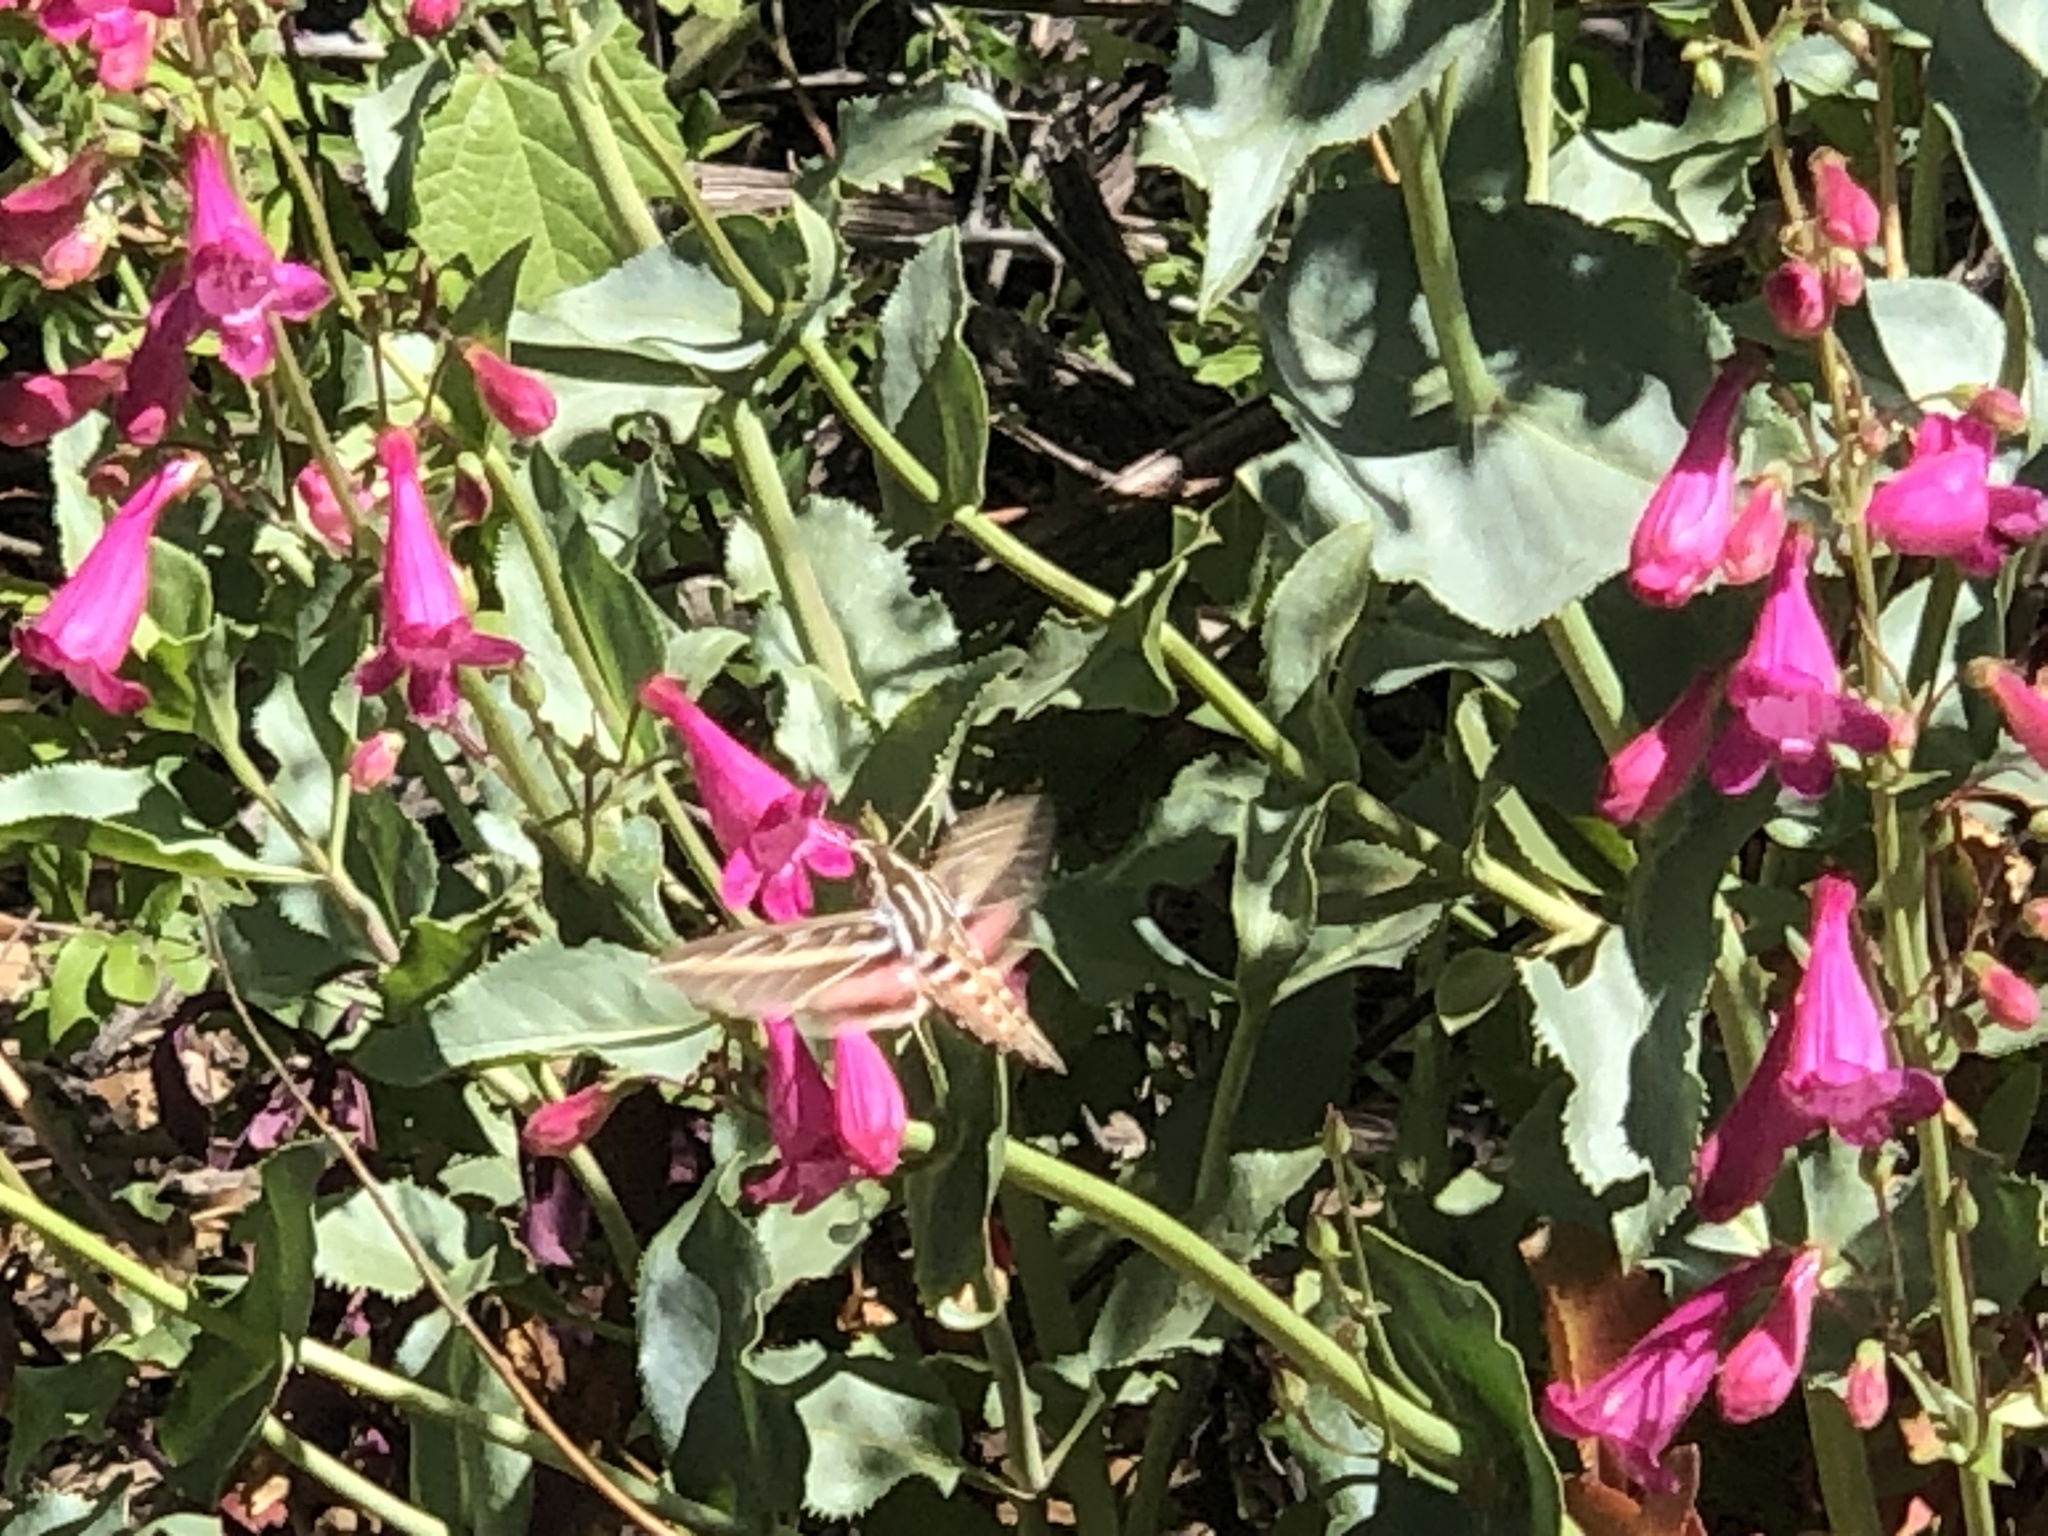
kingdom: Animalia
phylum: Arthropoda
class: Insecta
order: Lepidoptera
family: Sphingidae
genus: Hyles
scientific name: Hyles lineata
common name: White-lined sphinx
